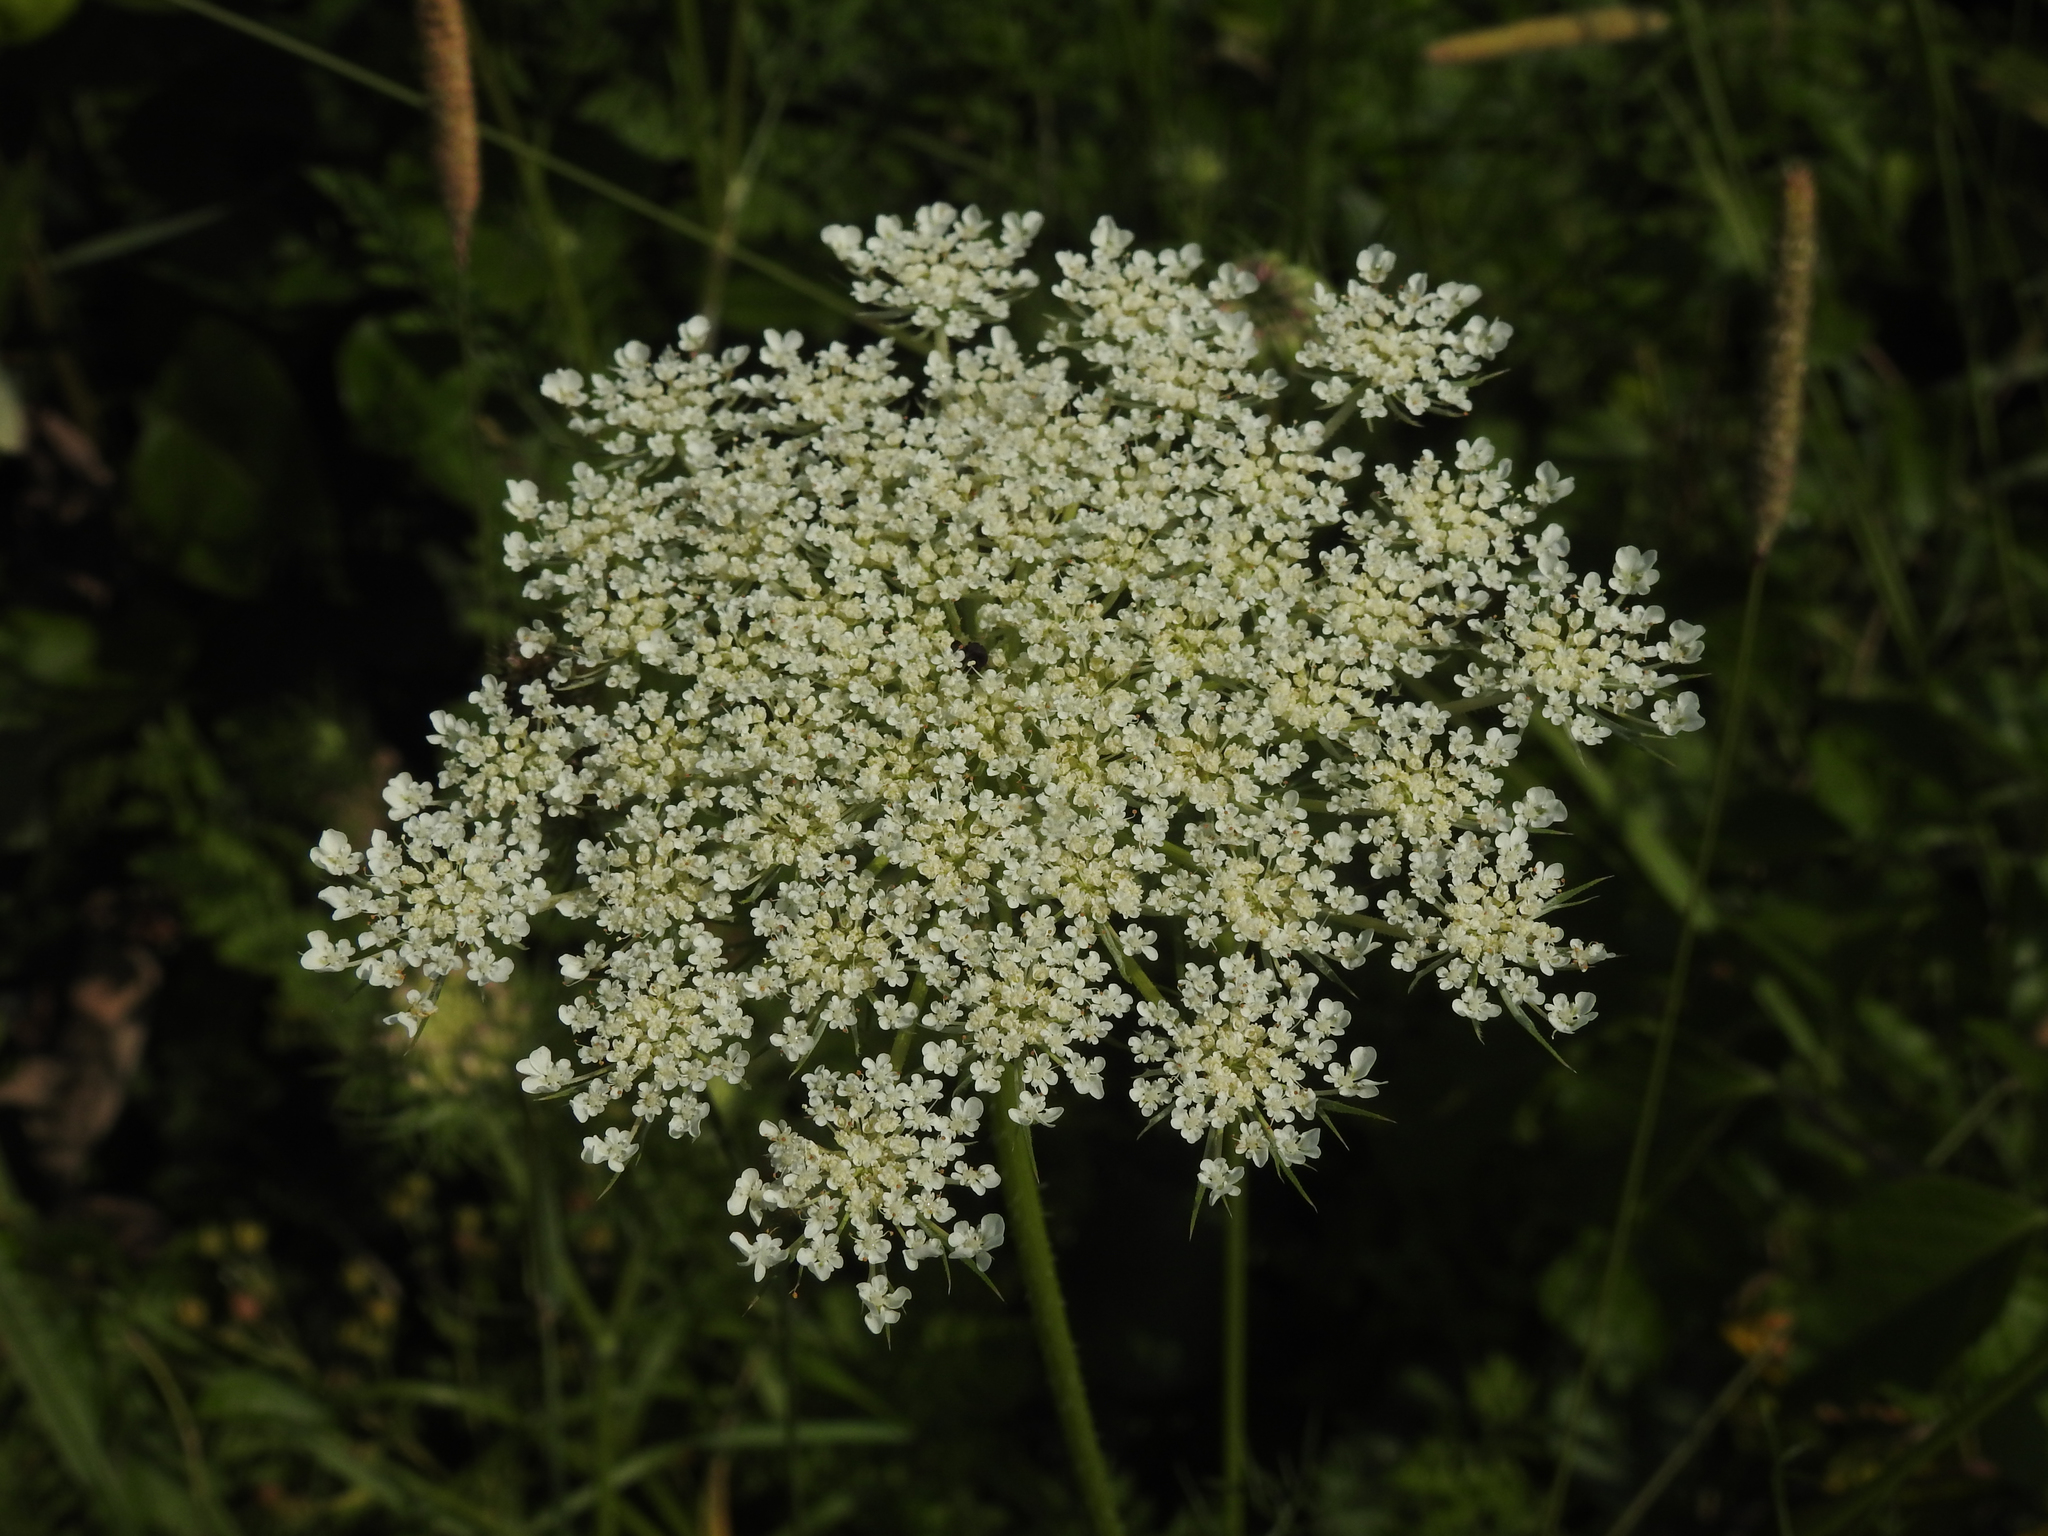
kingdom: Plantae
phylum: Tracheophyta
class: Magnoliopsida
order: Apiales
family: Apiaceae
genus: Daucus
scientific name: Daucus carota
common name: Wild carrot
